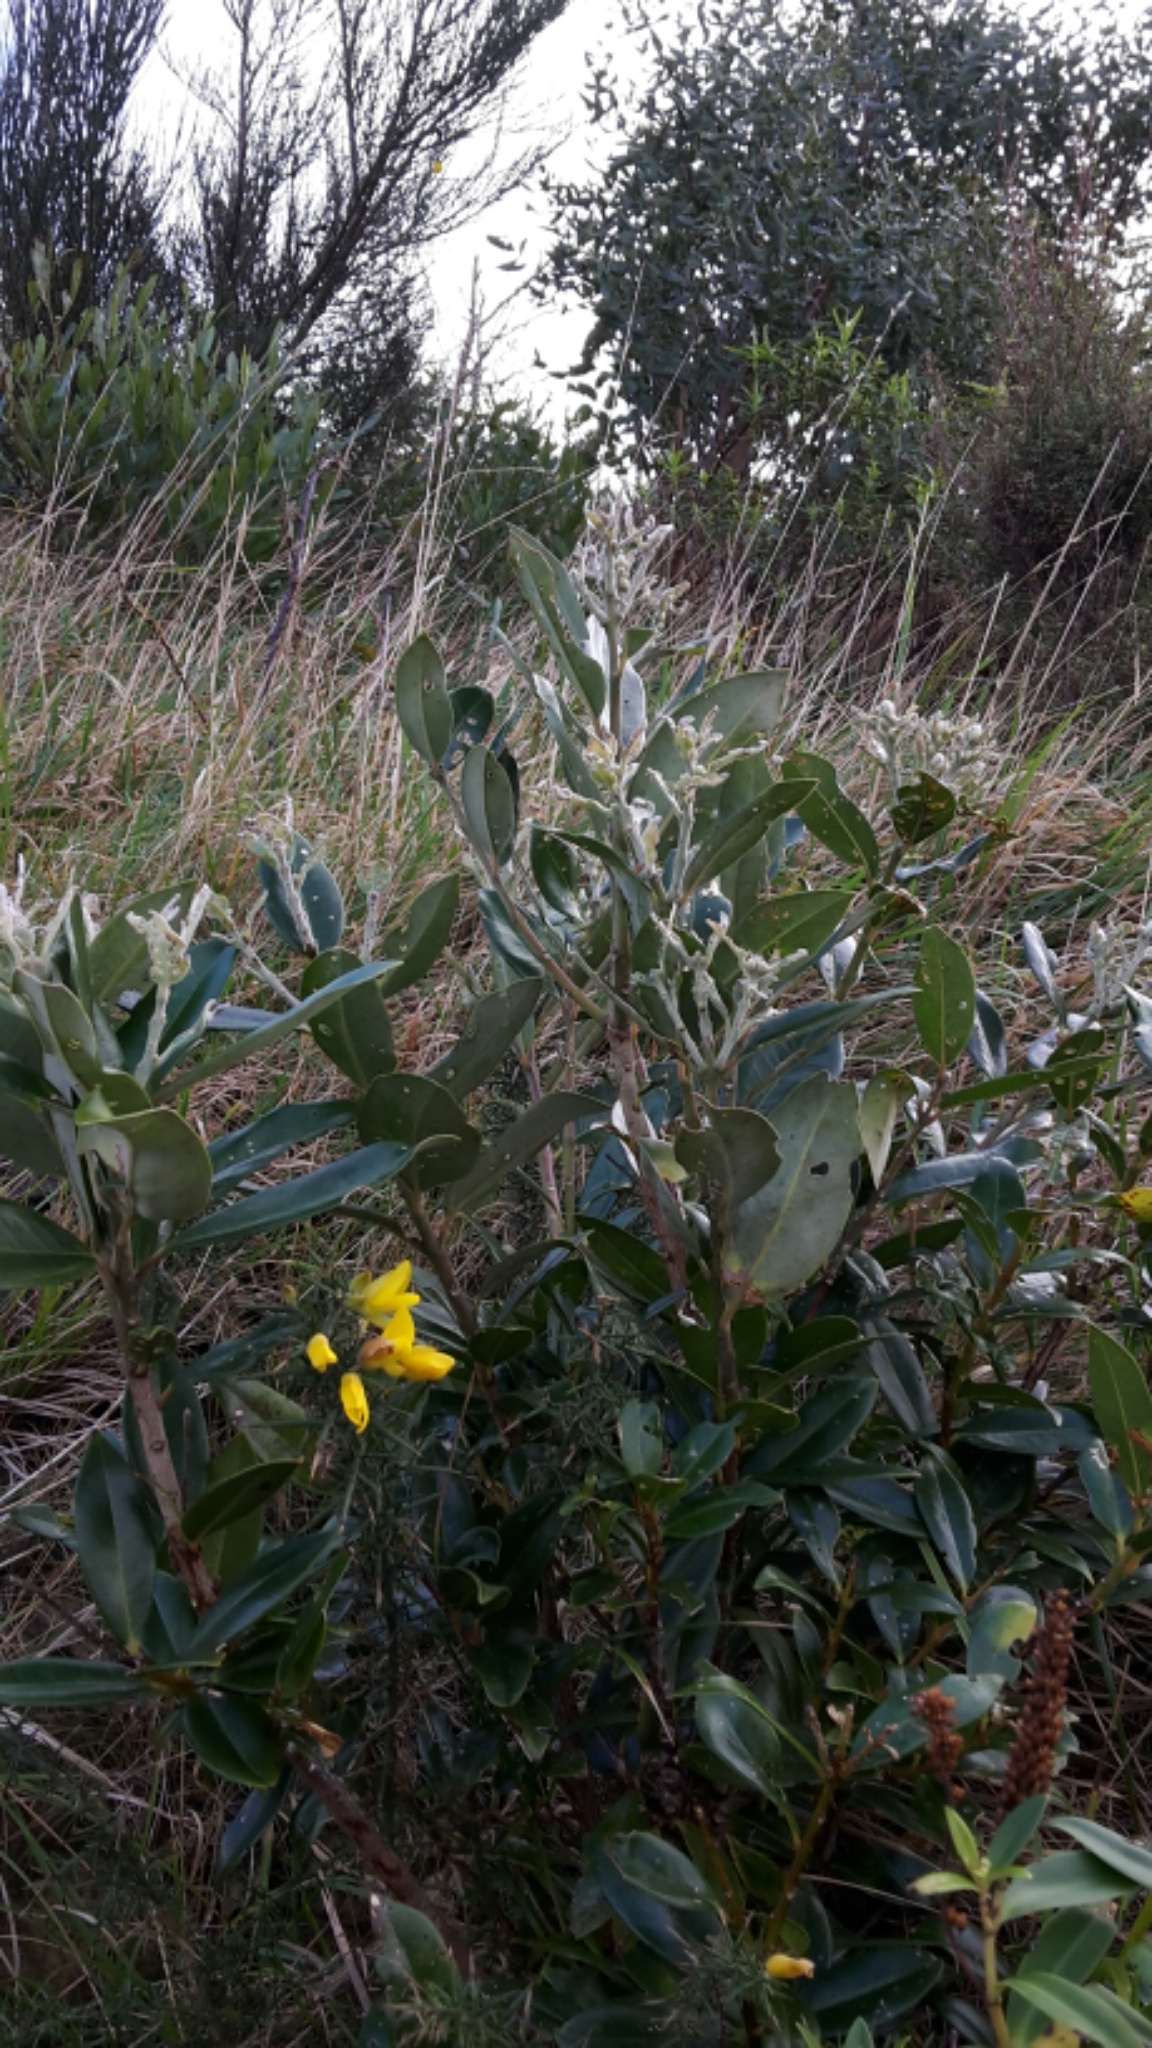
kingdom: Plantae
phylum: Tracheophyta
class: Magnoliopsida
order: Myrtales
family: Myrtaceae
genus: Metrosideros
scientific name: Metrosideros excelsa
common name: New zealand christmastree
